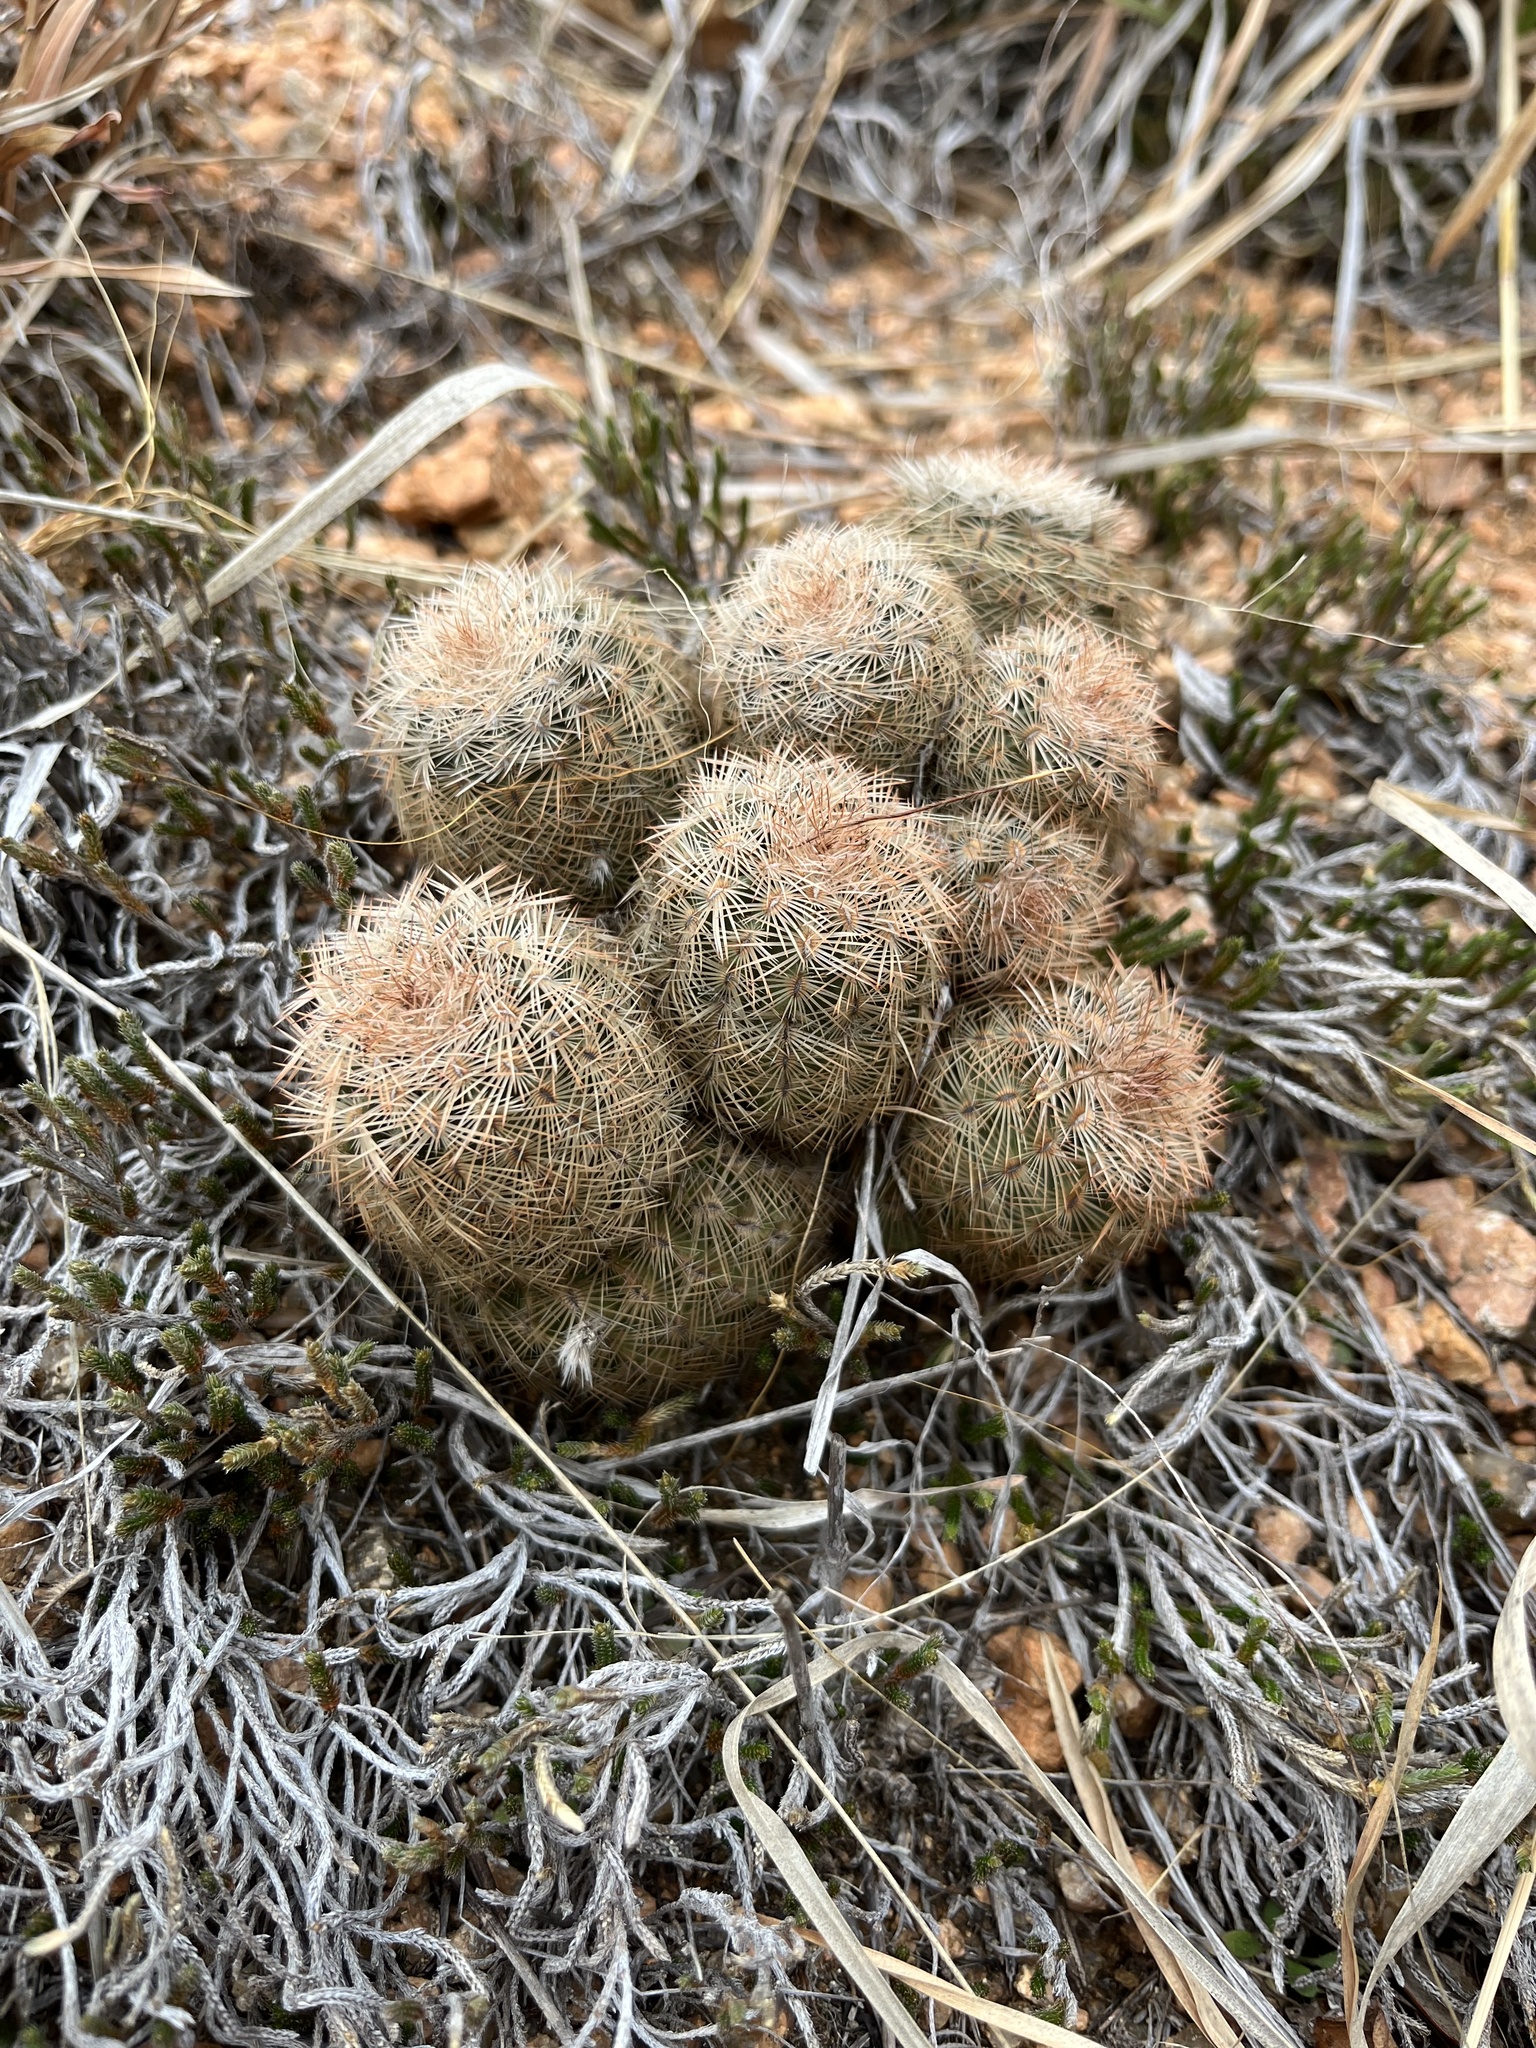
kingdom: Plantae
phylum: Tracheophyta
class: Magnoliopsida
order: Caryophyllales
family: Cactaceae
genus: Echinocereus
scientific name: Echinocereus reichenbachii
